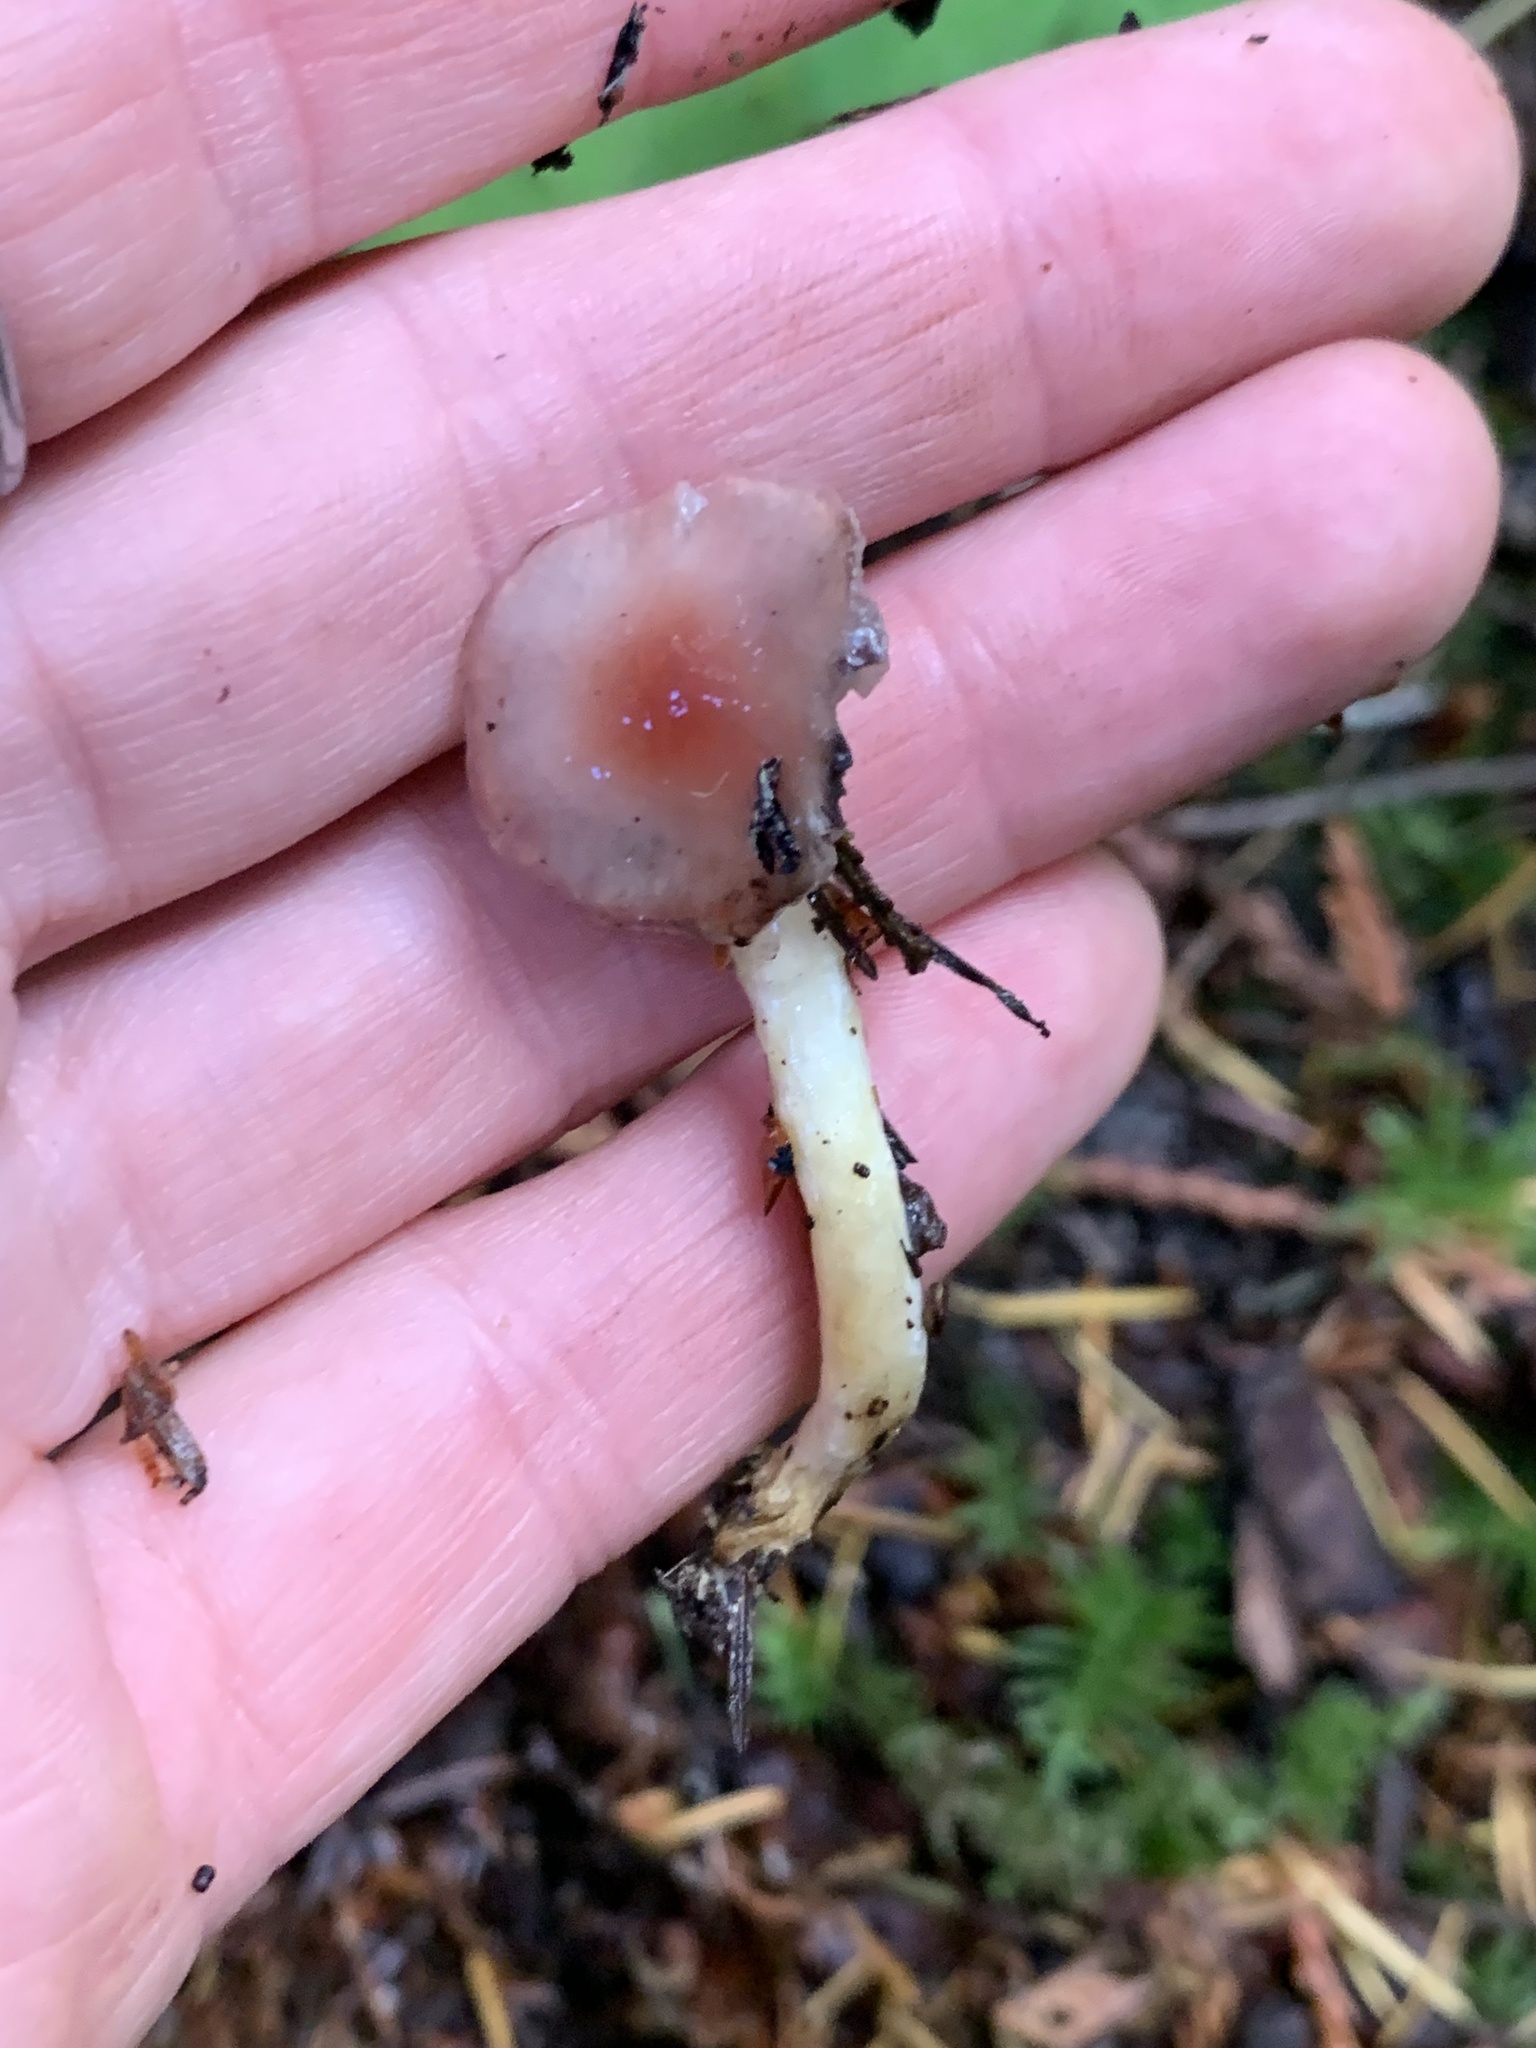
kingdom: Fungi
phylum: Basidiomycota
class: Agaricomycetes
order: Boletales
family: Gomphidiaceae
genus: Gomphidius
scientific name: Gomphidius subroseus
